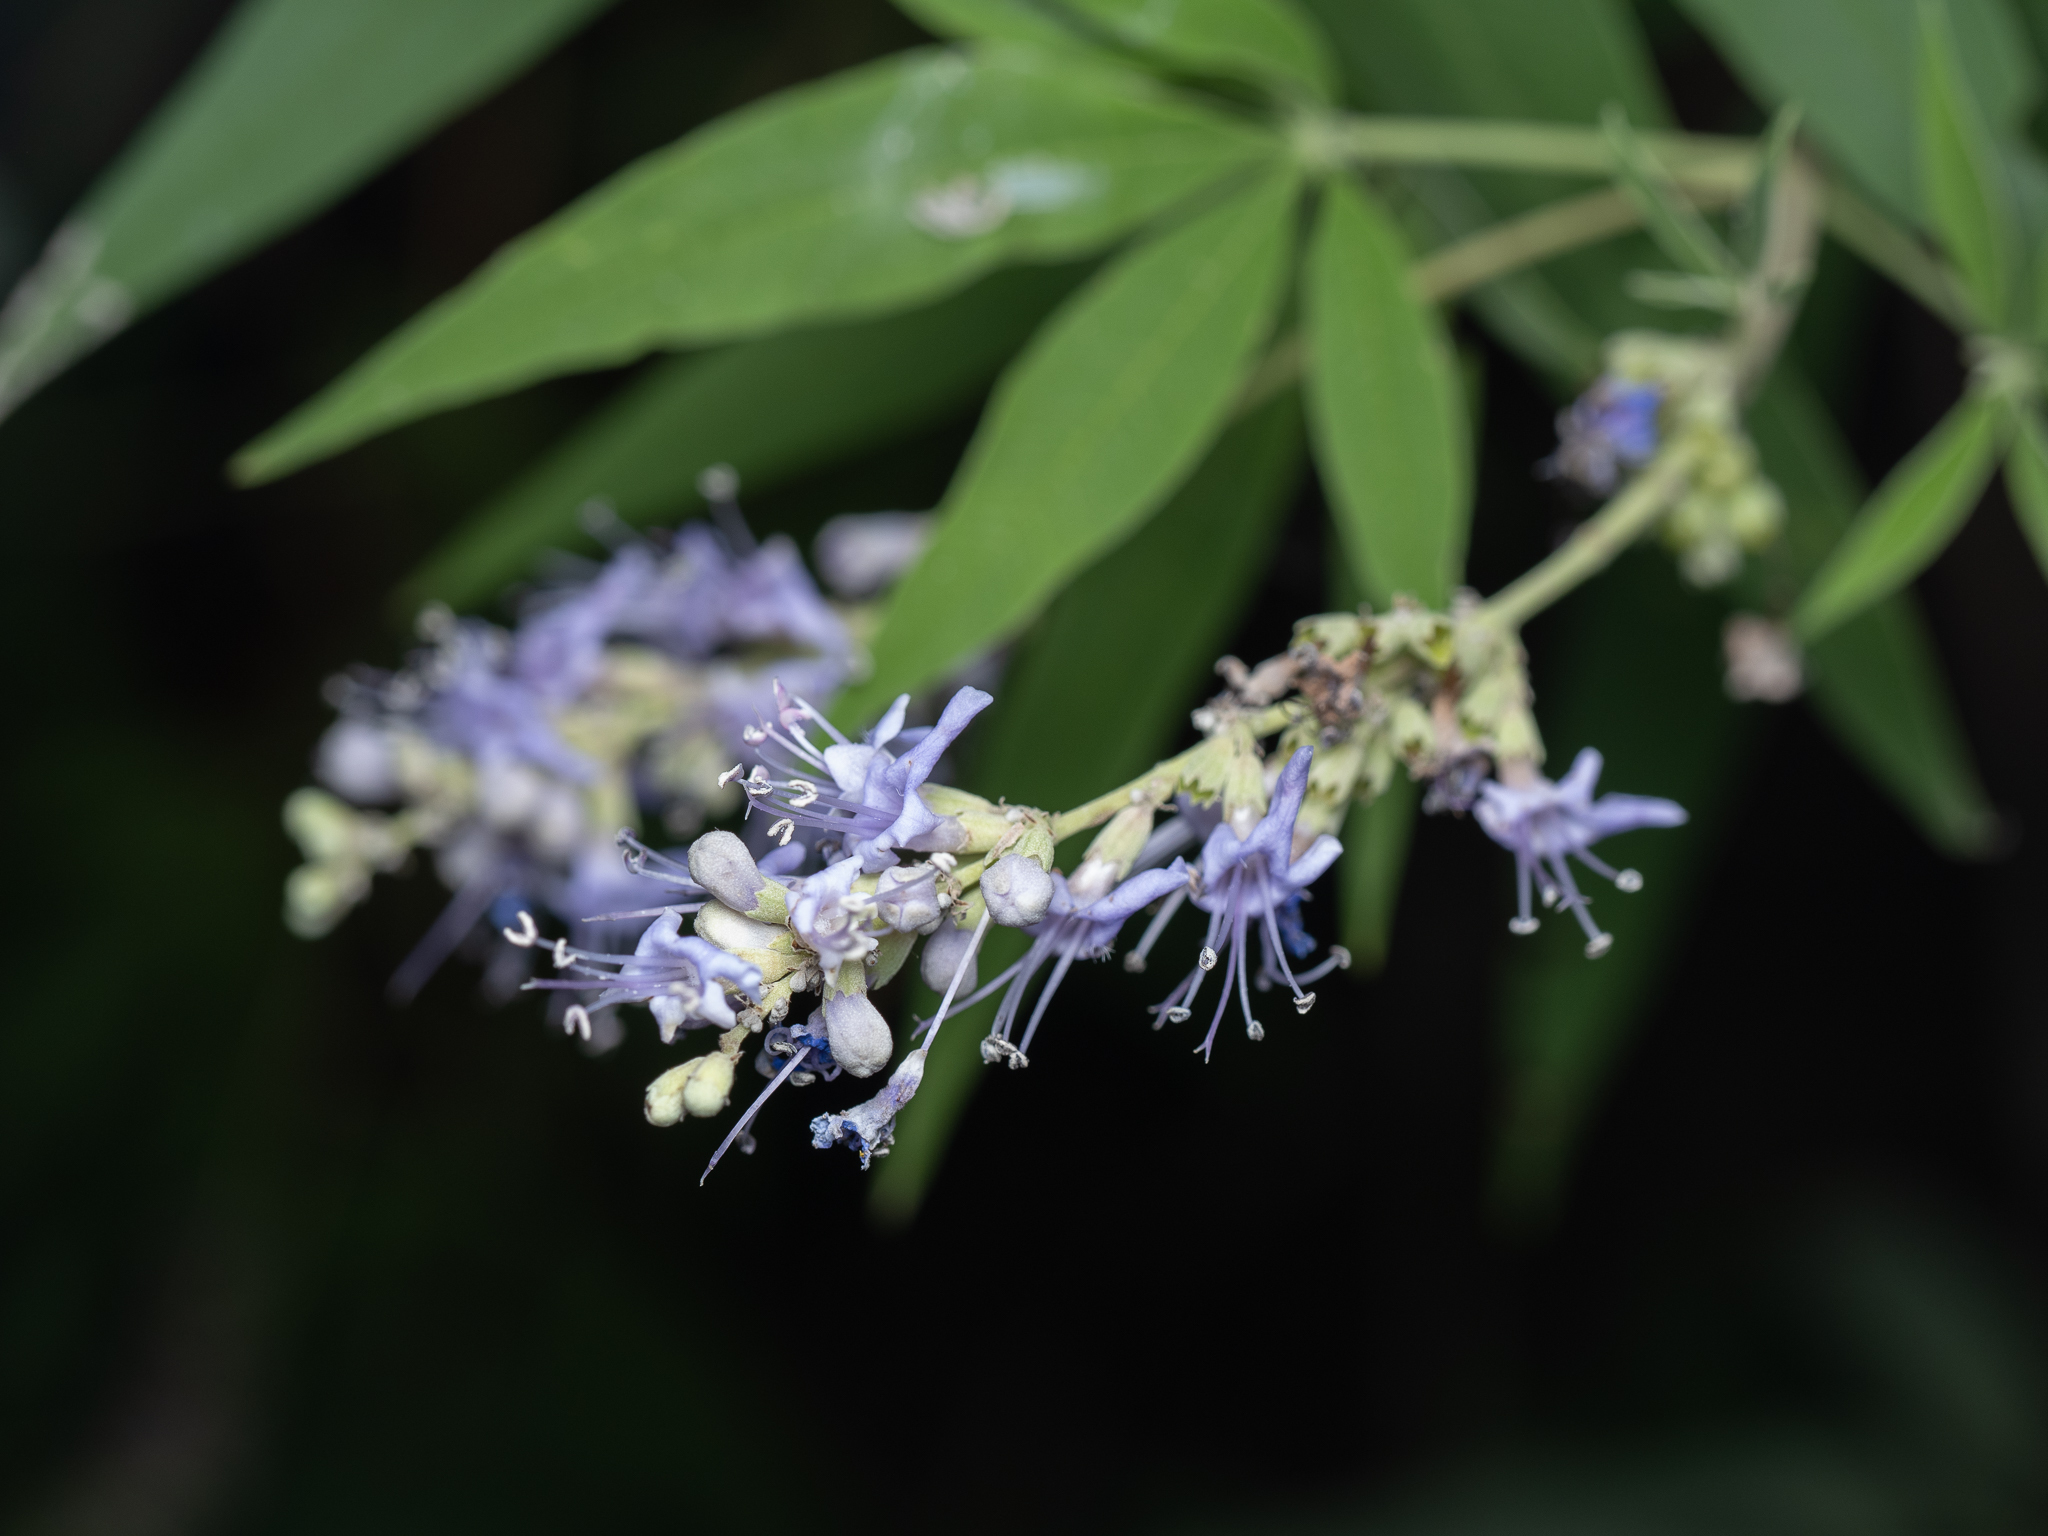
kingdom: Plantae
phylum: Tracheophyta
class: Magnoliopsida
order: Lamiales
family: Lamiaceae
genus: Vitex
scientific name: Vitex agnus-castus
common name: Chasteberry
